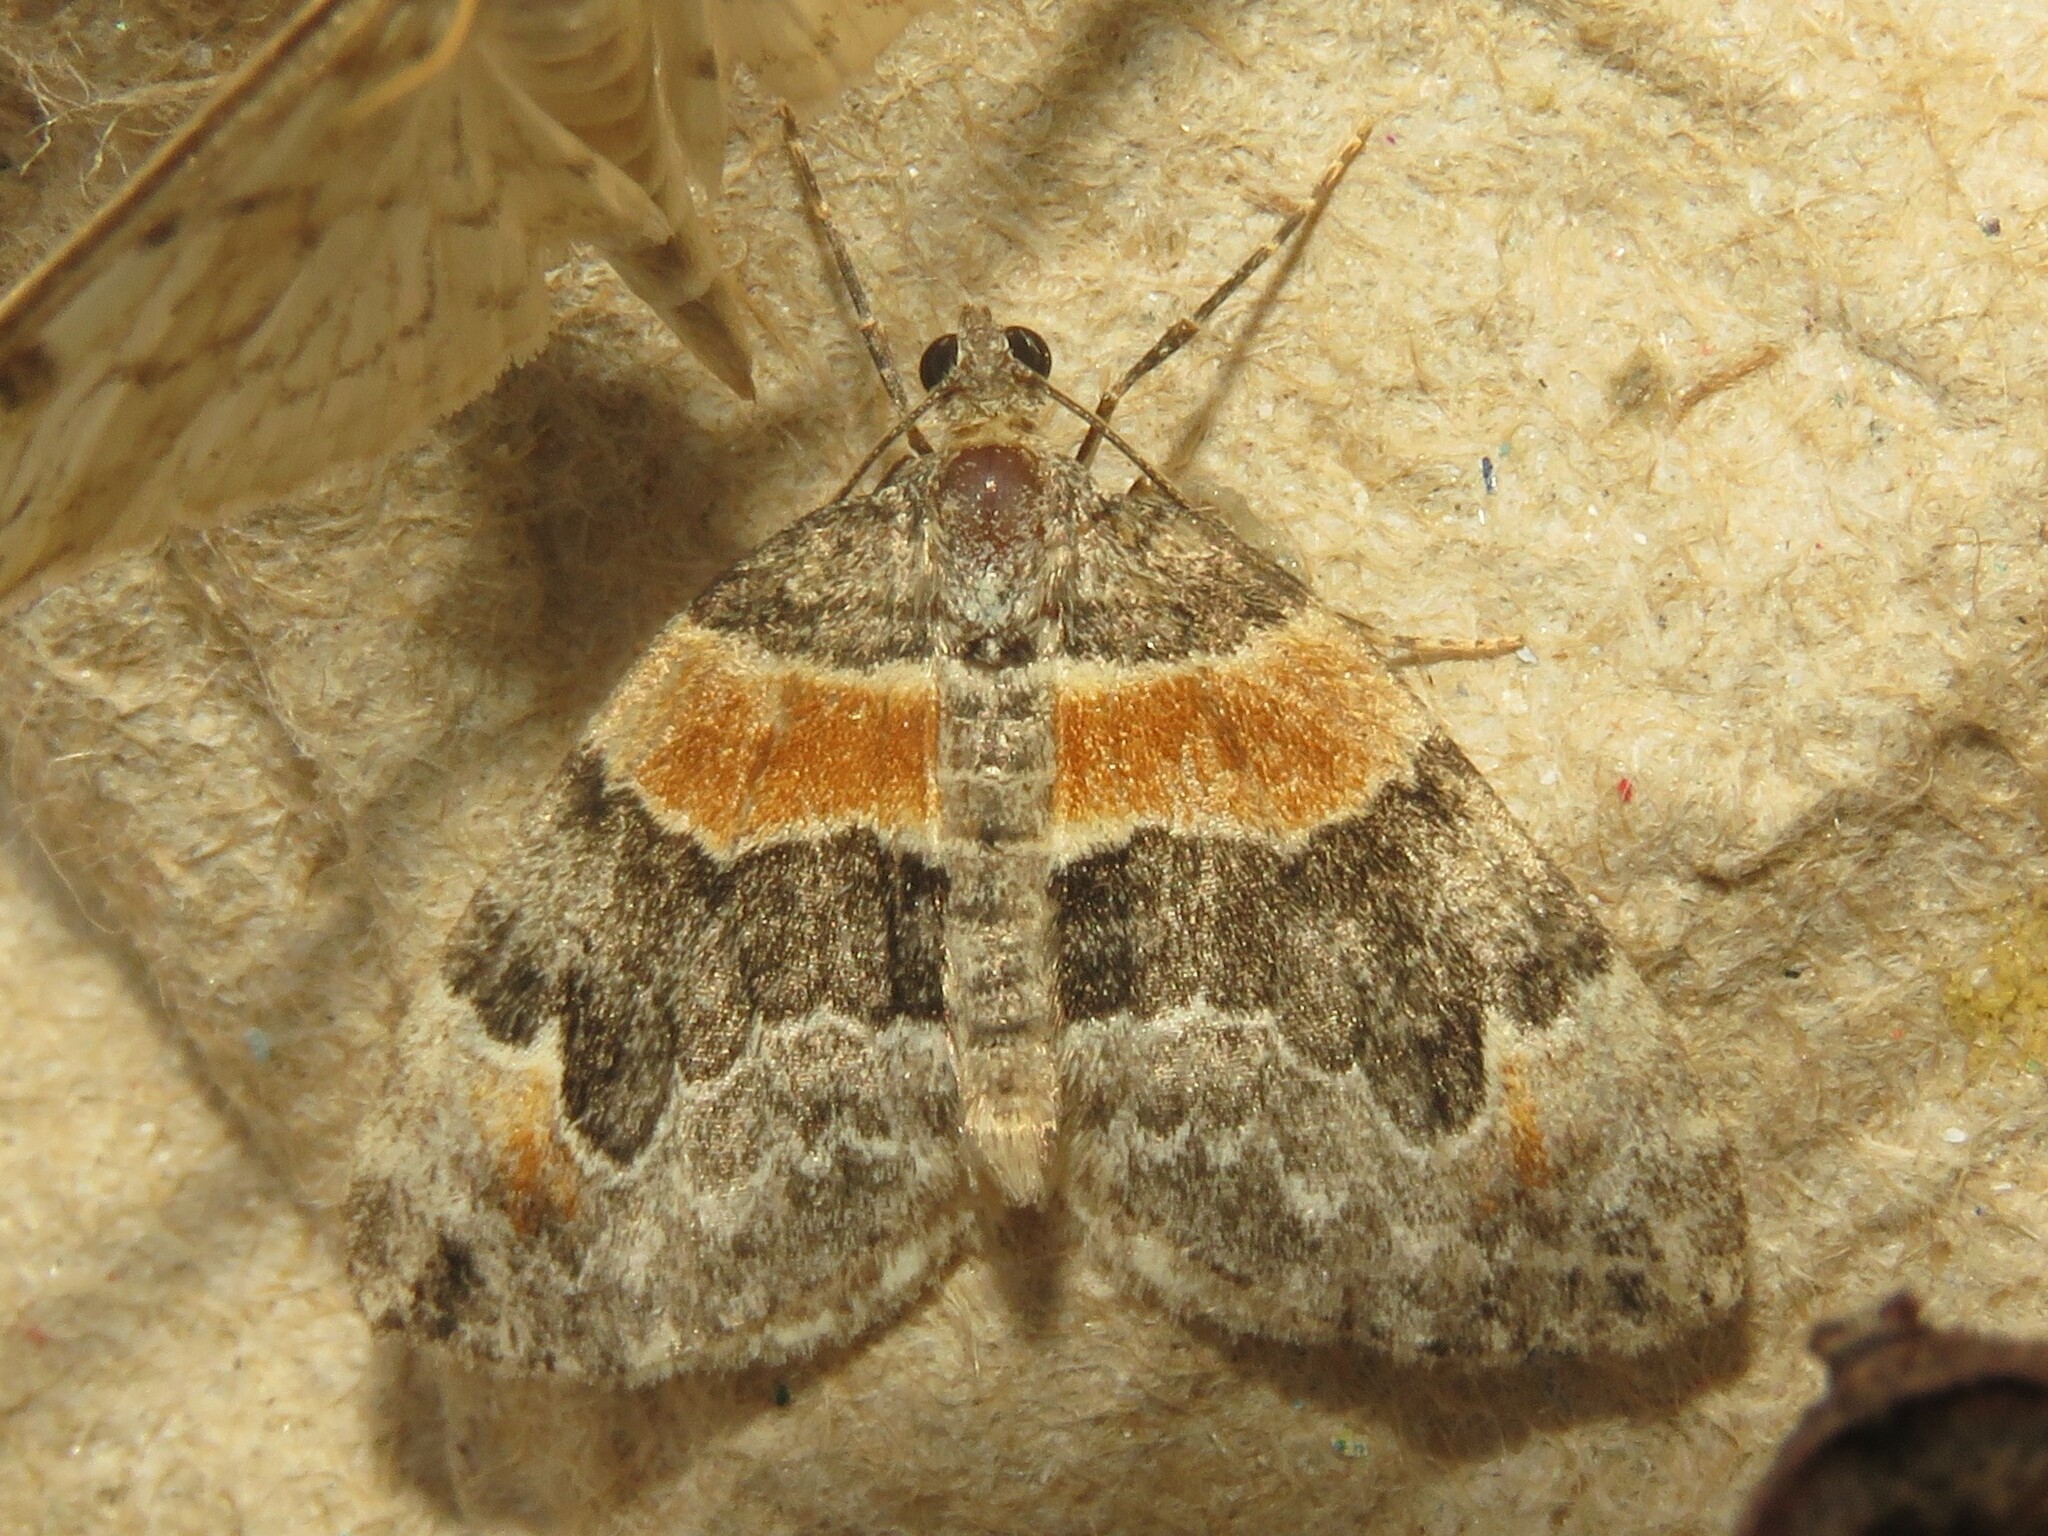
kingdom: Animalia
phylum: Arthropoda
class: Insecta
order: Lepidoptera
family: Geometridae
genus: Dysstroma
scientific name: Dysstroma hersiliata
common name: Orange-barred carpet
